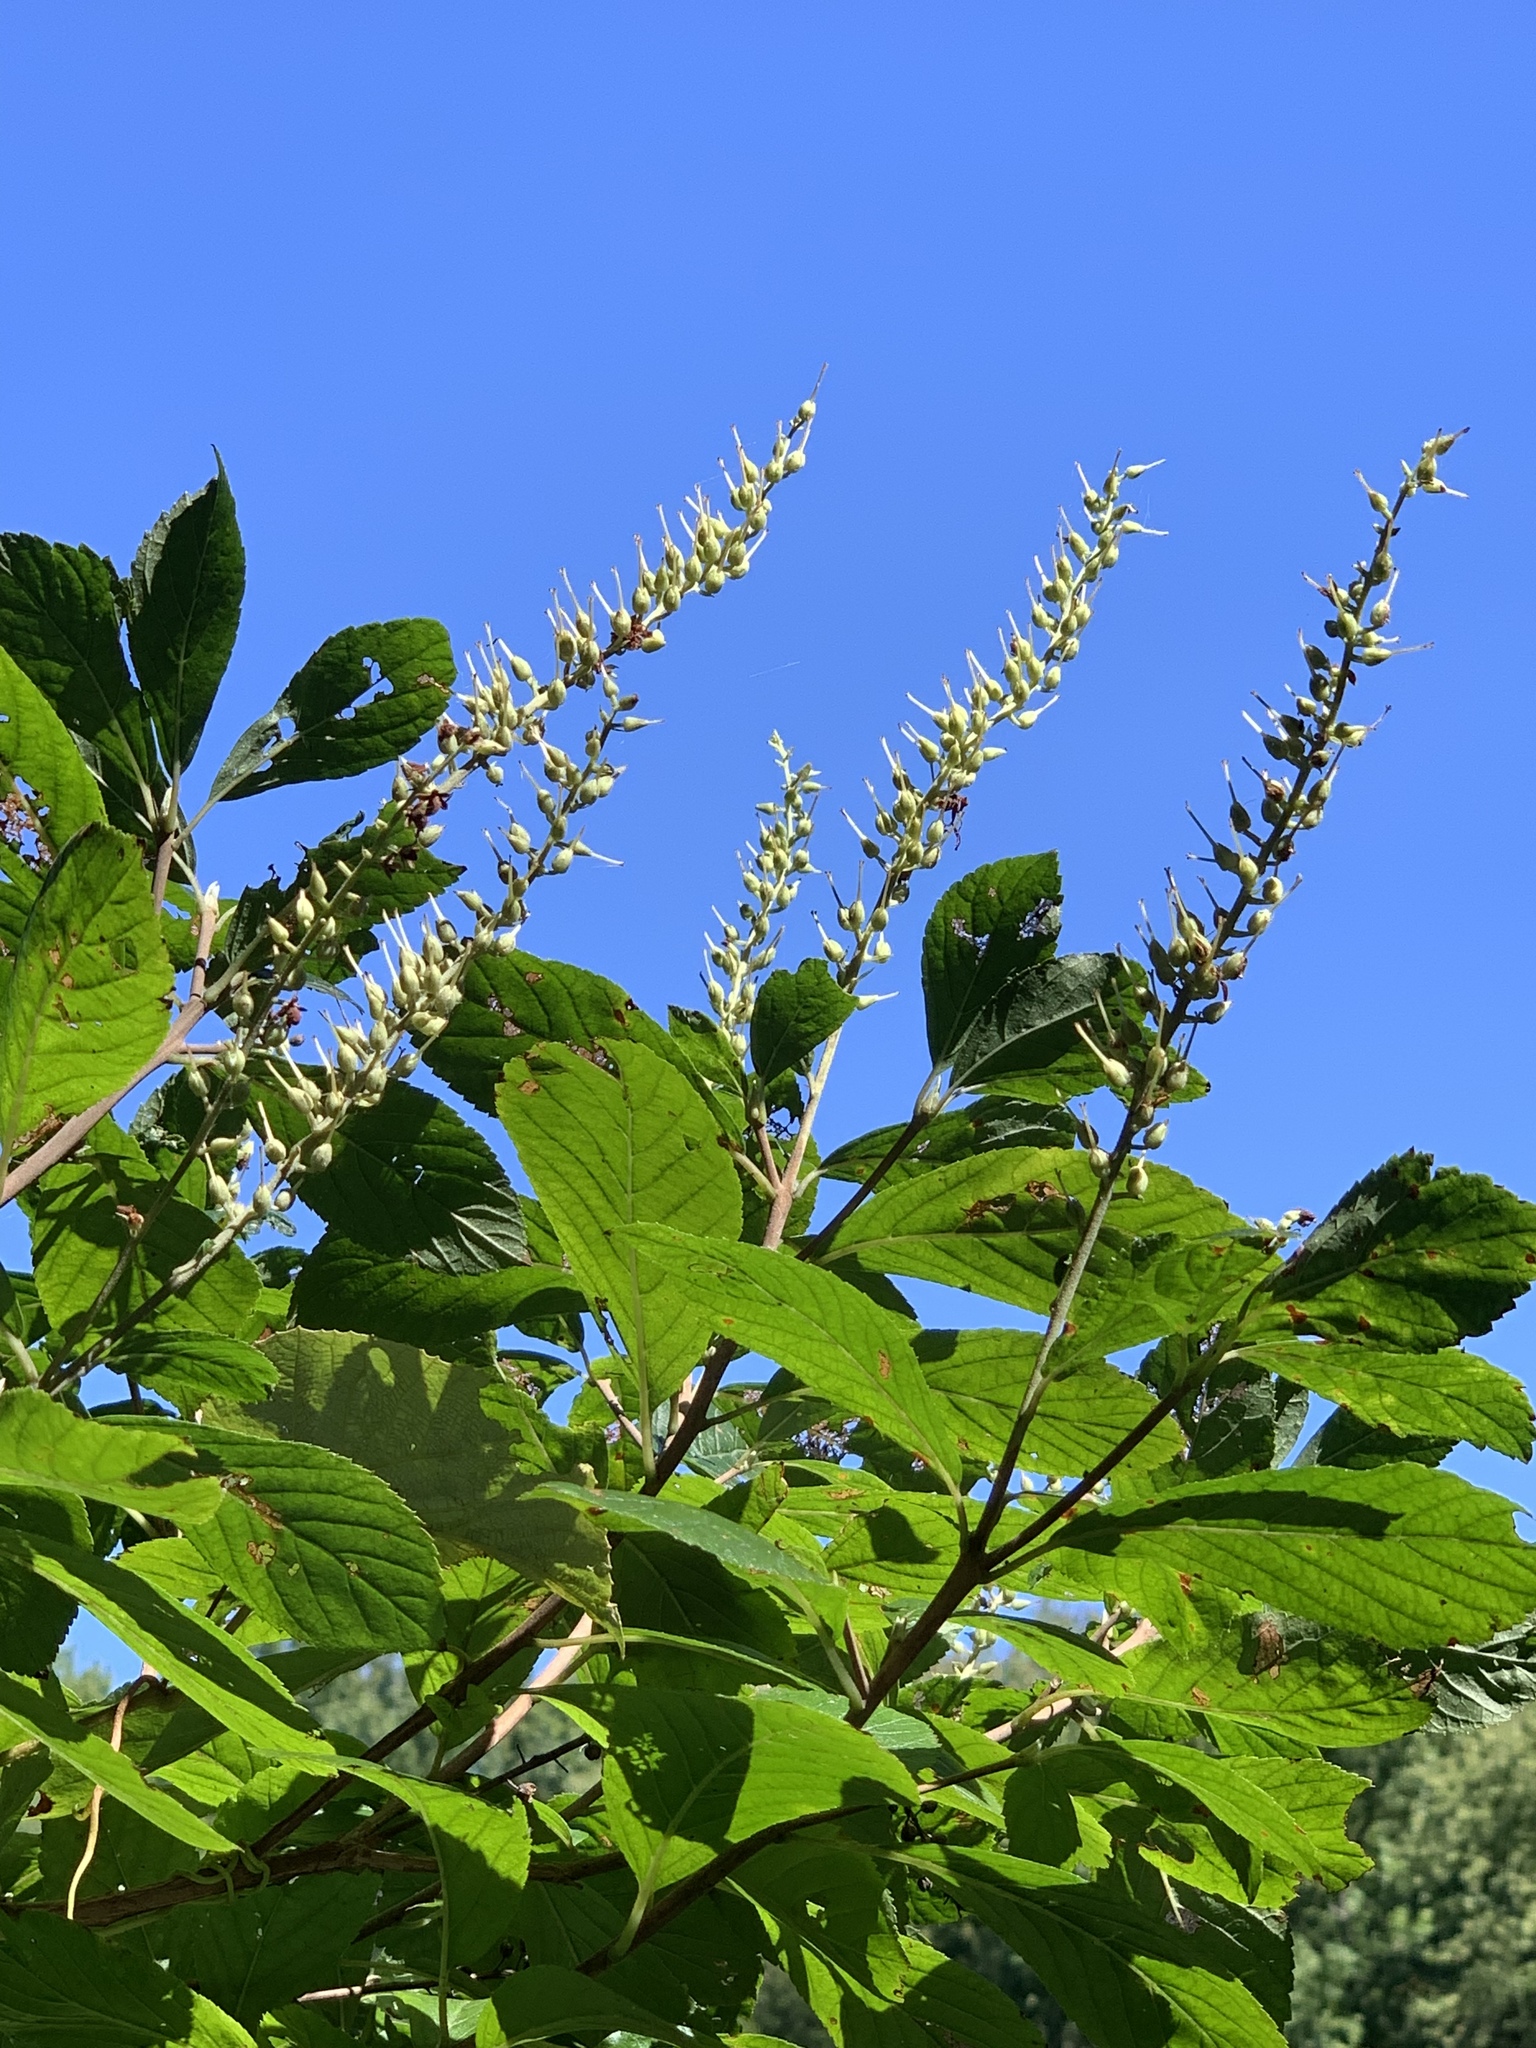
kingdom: Plantae
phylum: Tracheophyta
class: Magnoliopsida
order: Ericales
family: Clethraceae
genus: Clethra
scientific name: Clethra alnifolia
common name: Sweet pepperbush
